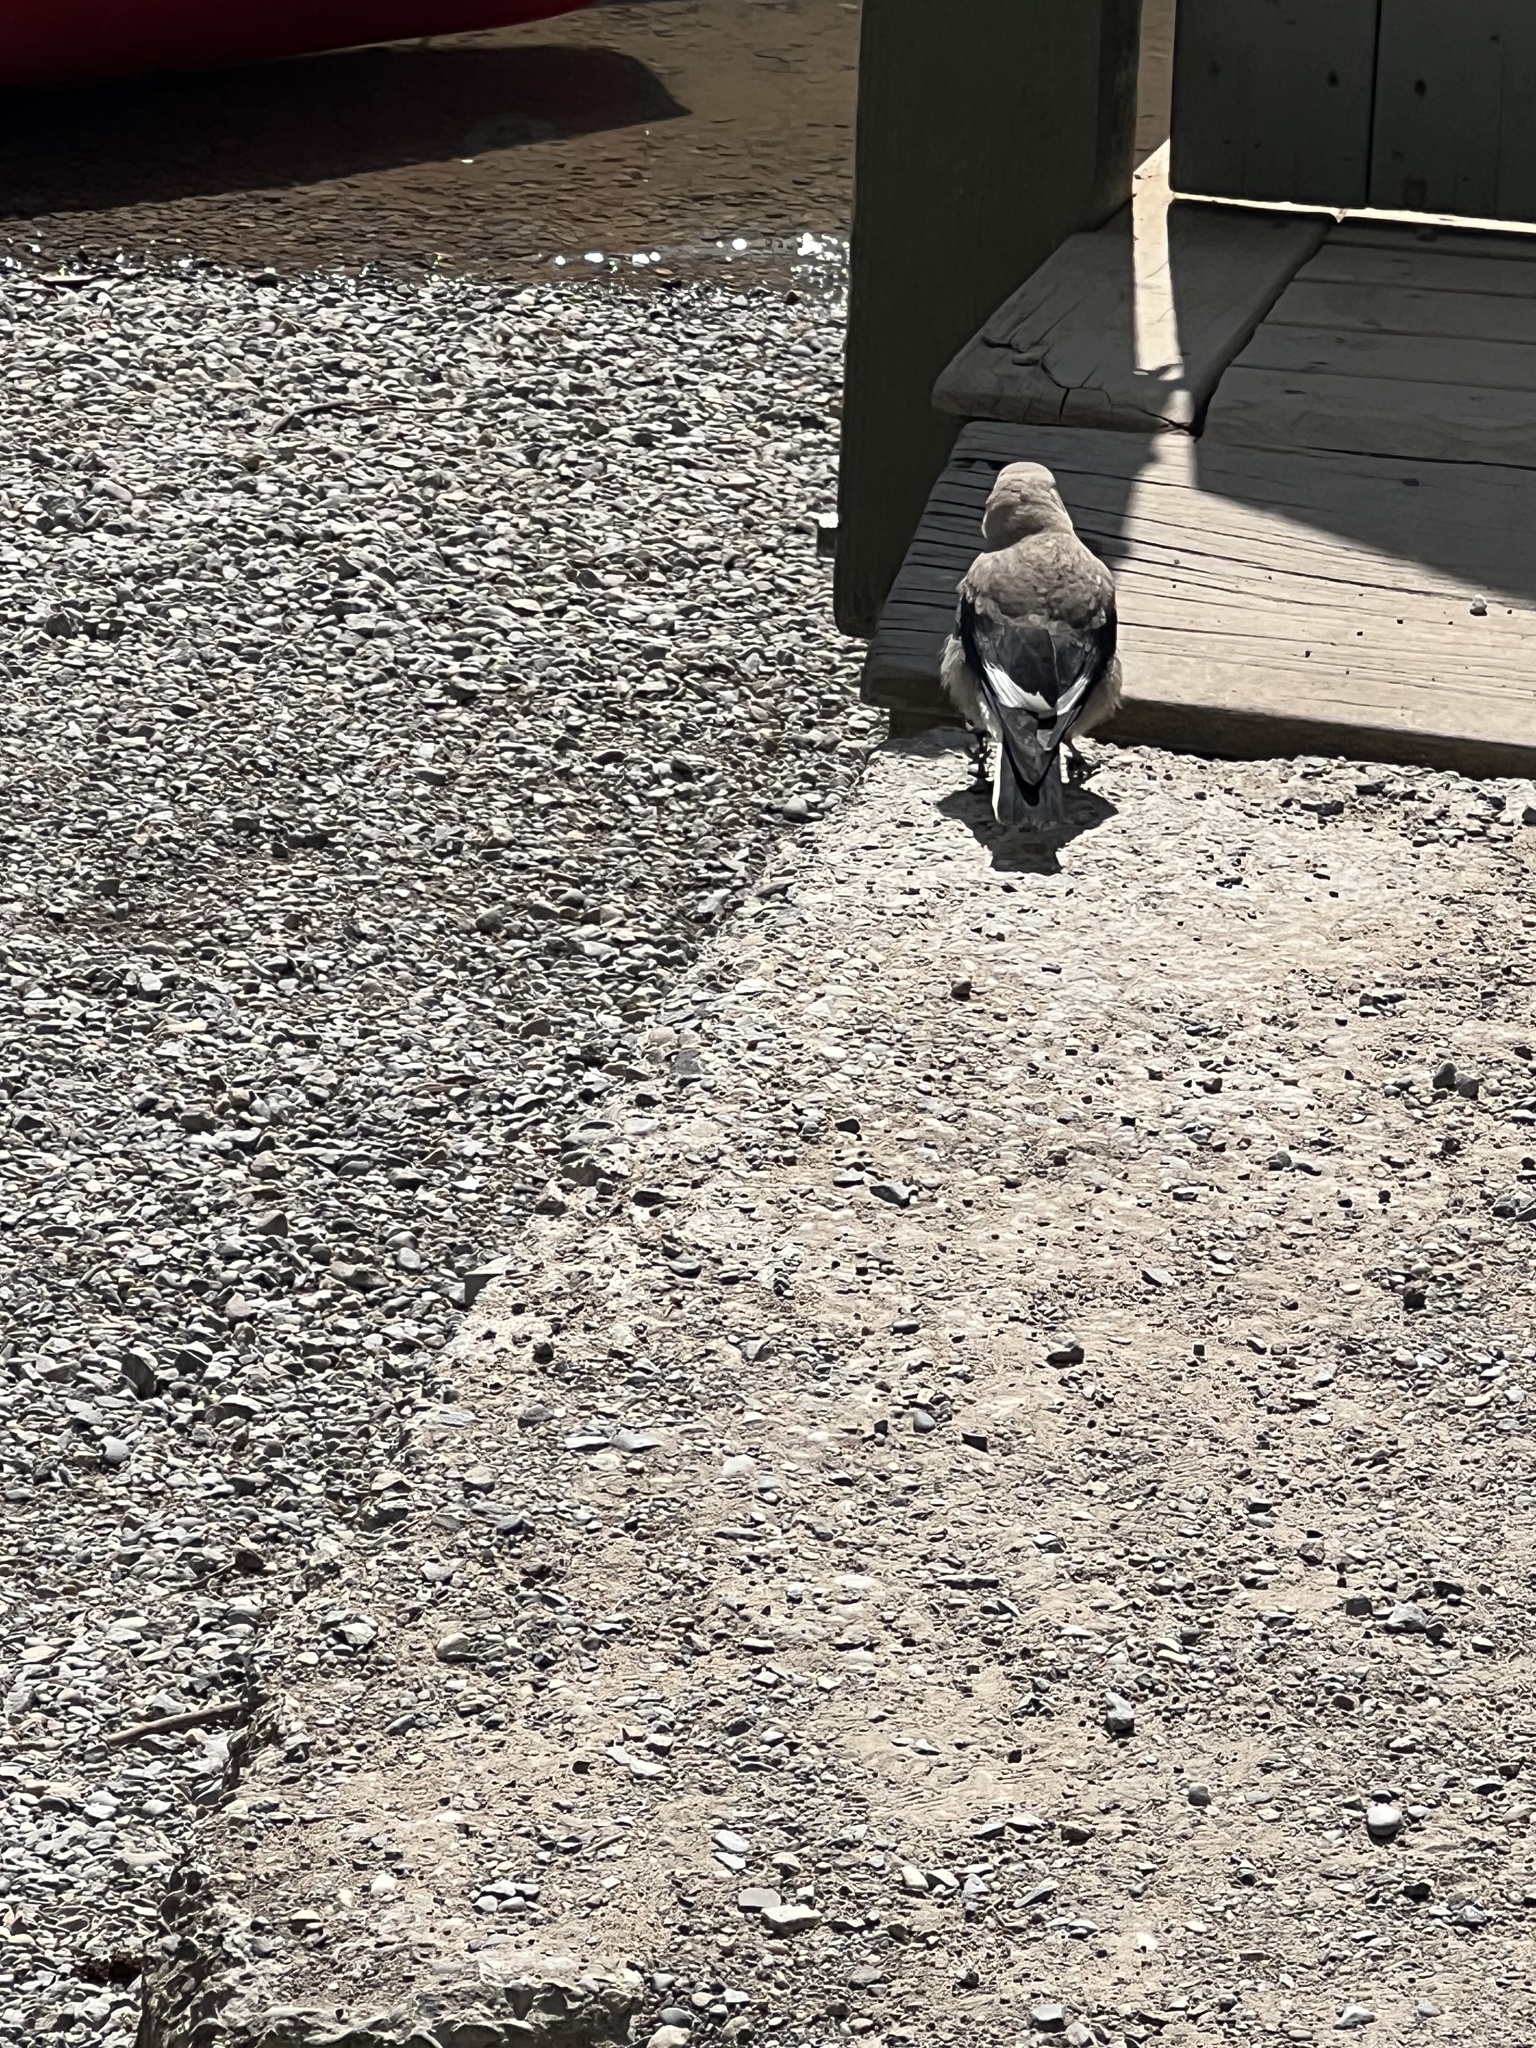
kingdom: Animalia
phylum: Chordata
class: Aves
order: Passeriformes
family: Corvidae
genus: Nucifraga
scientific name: Nucifraga columbiana
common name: Clark's nutcracker
